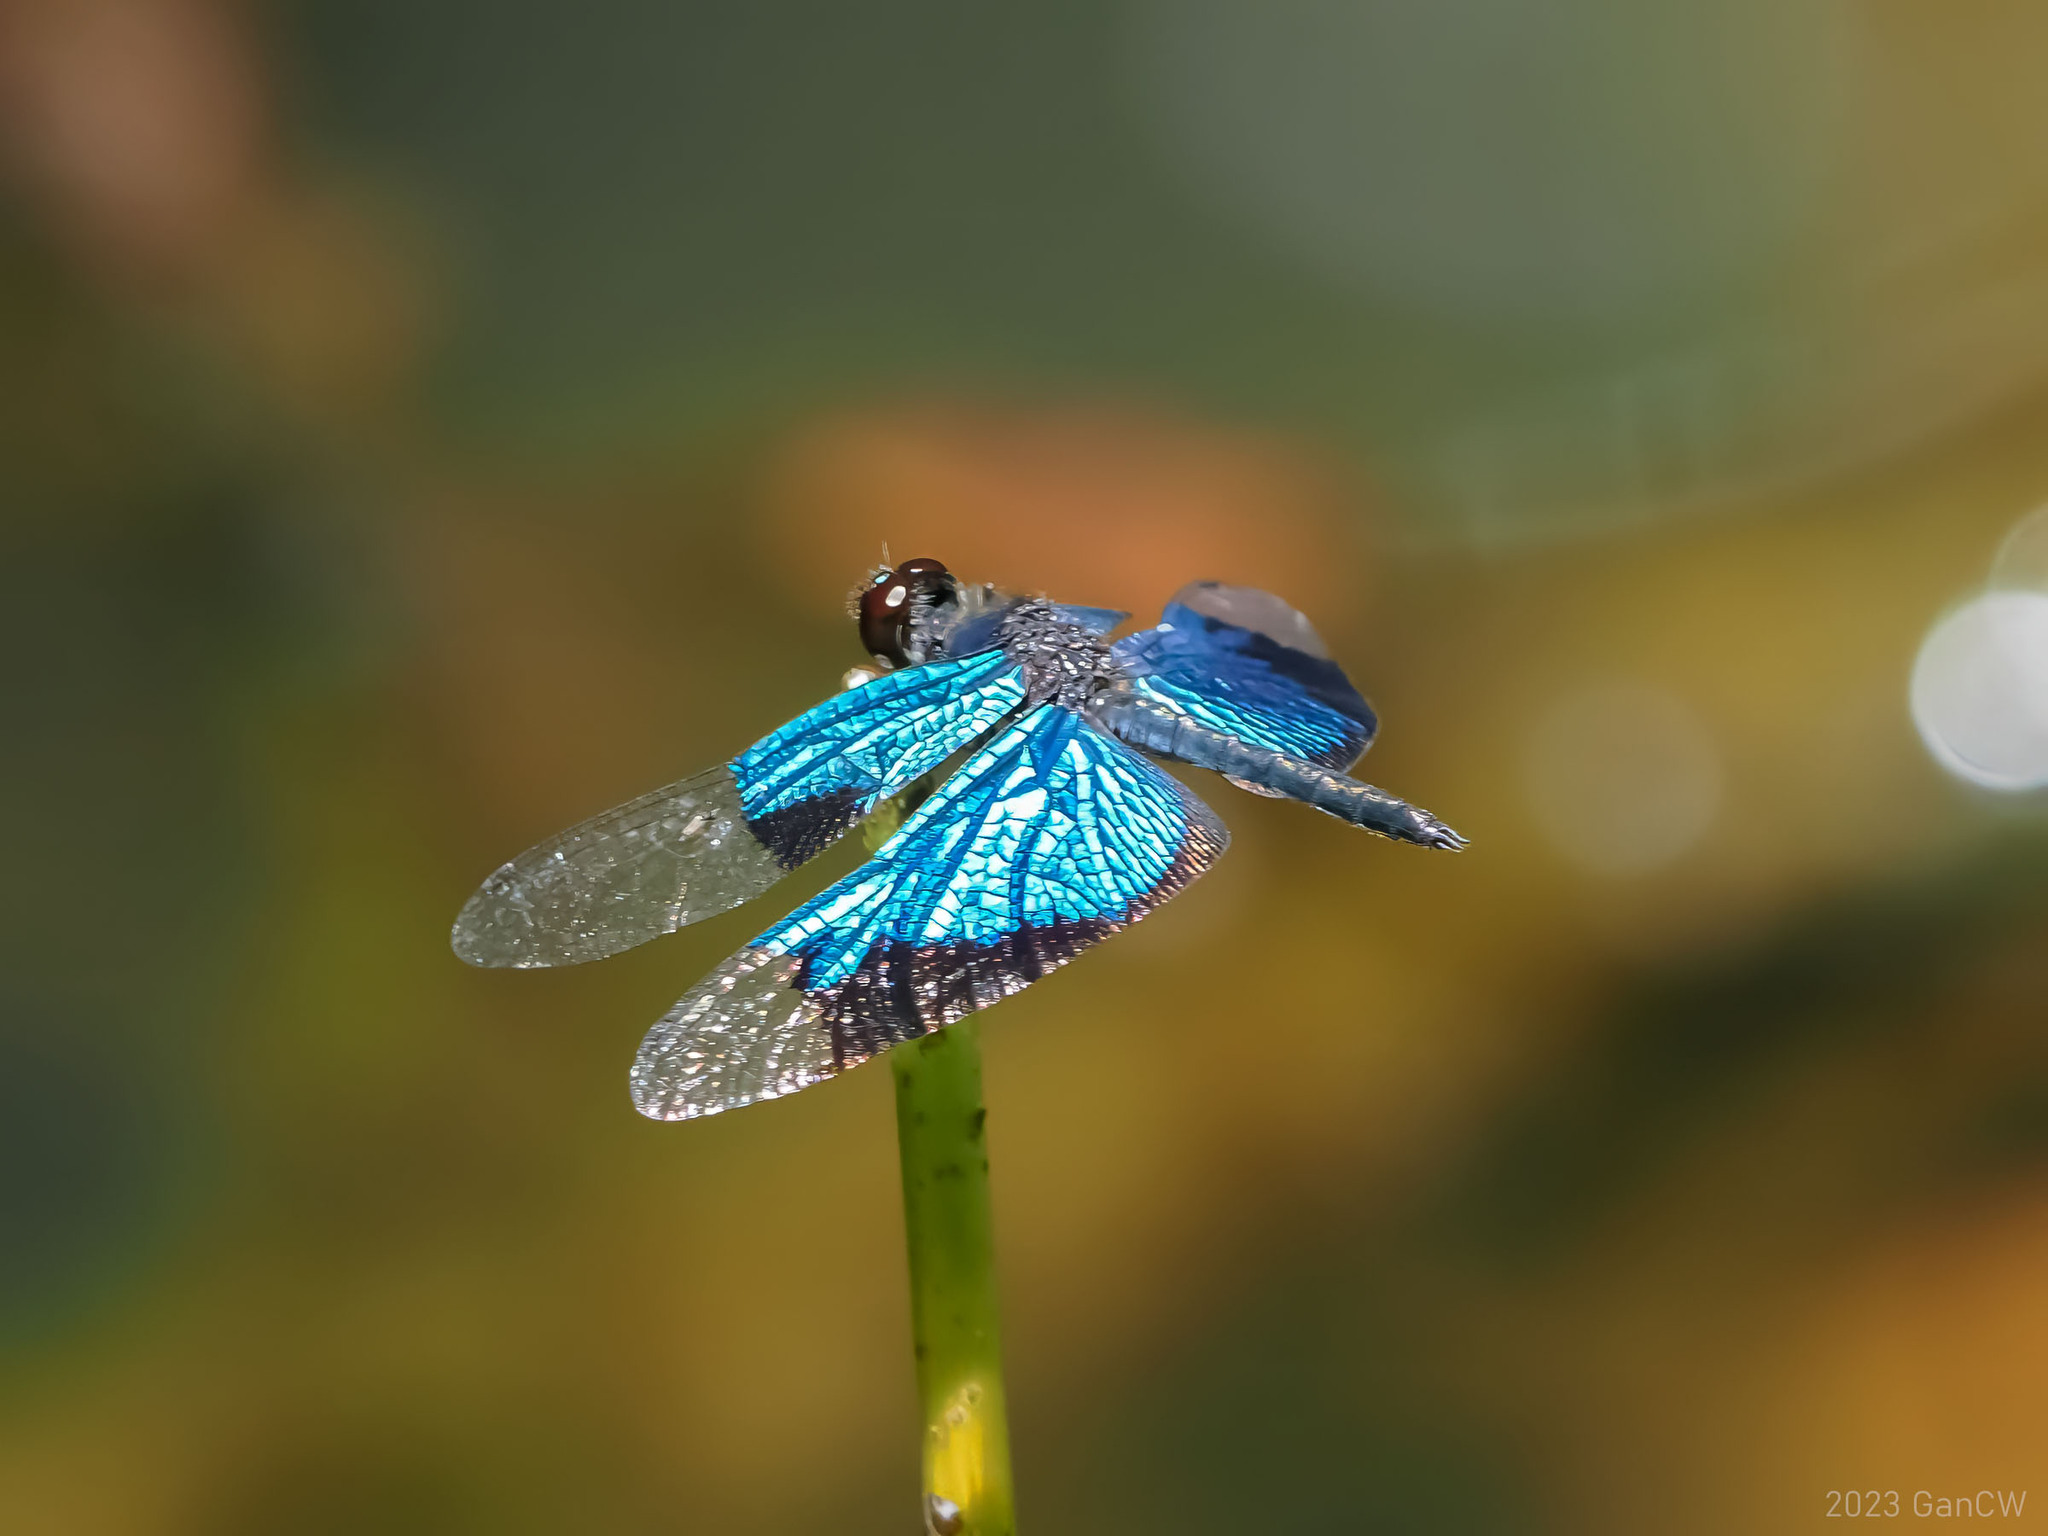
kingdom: Animalia
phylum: Arthropoda
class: Insecta
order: Odonata
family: Libellulidae
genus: Rhyothemis
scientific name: Rhyothemis resplendens
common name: Jewel flutterer
